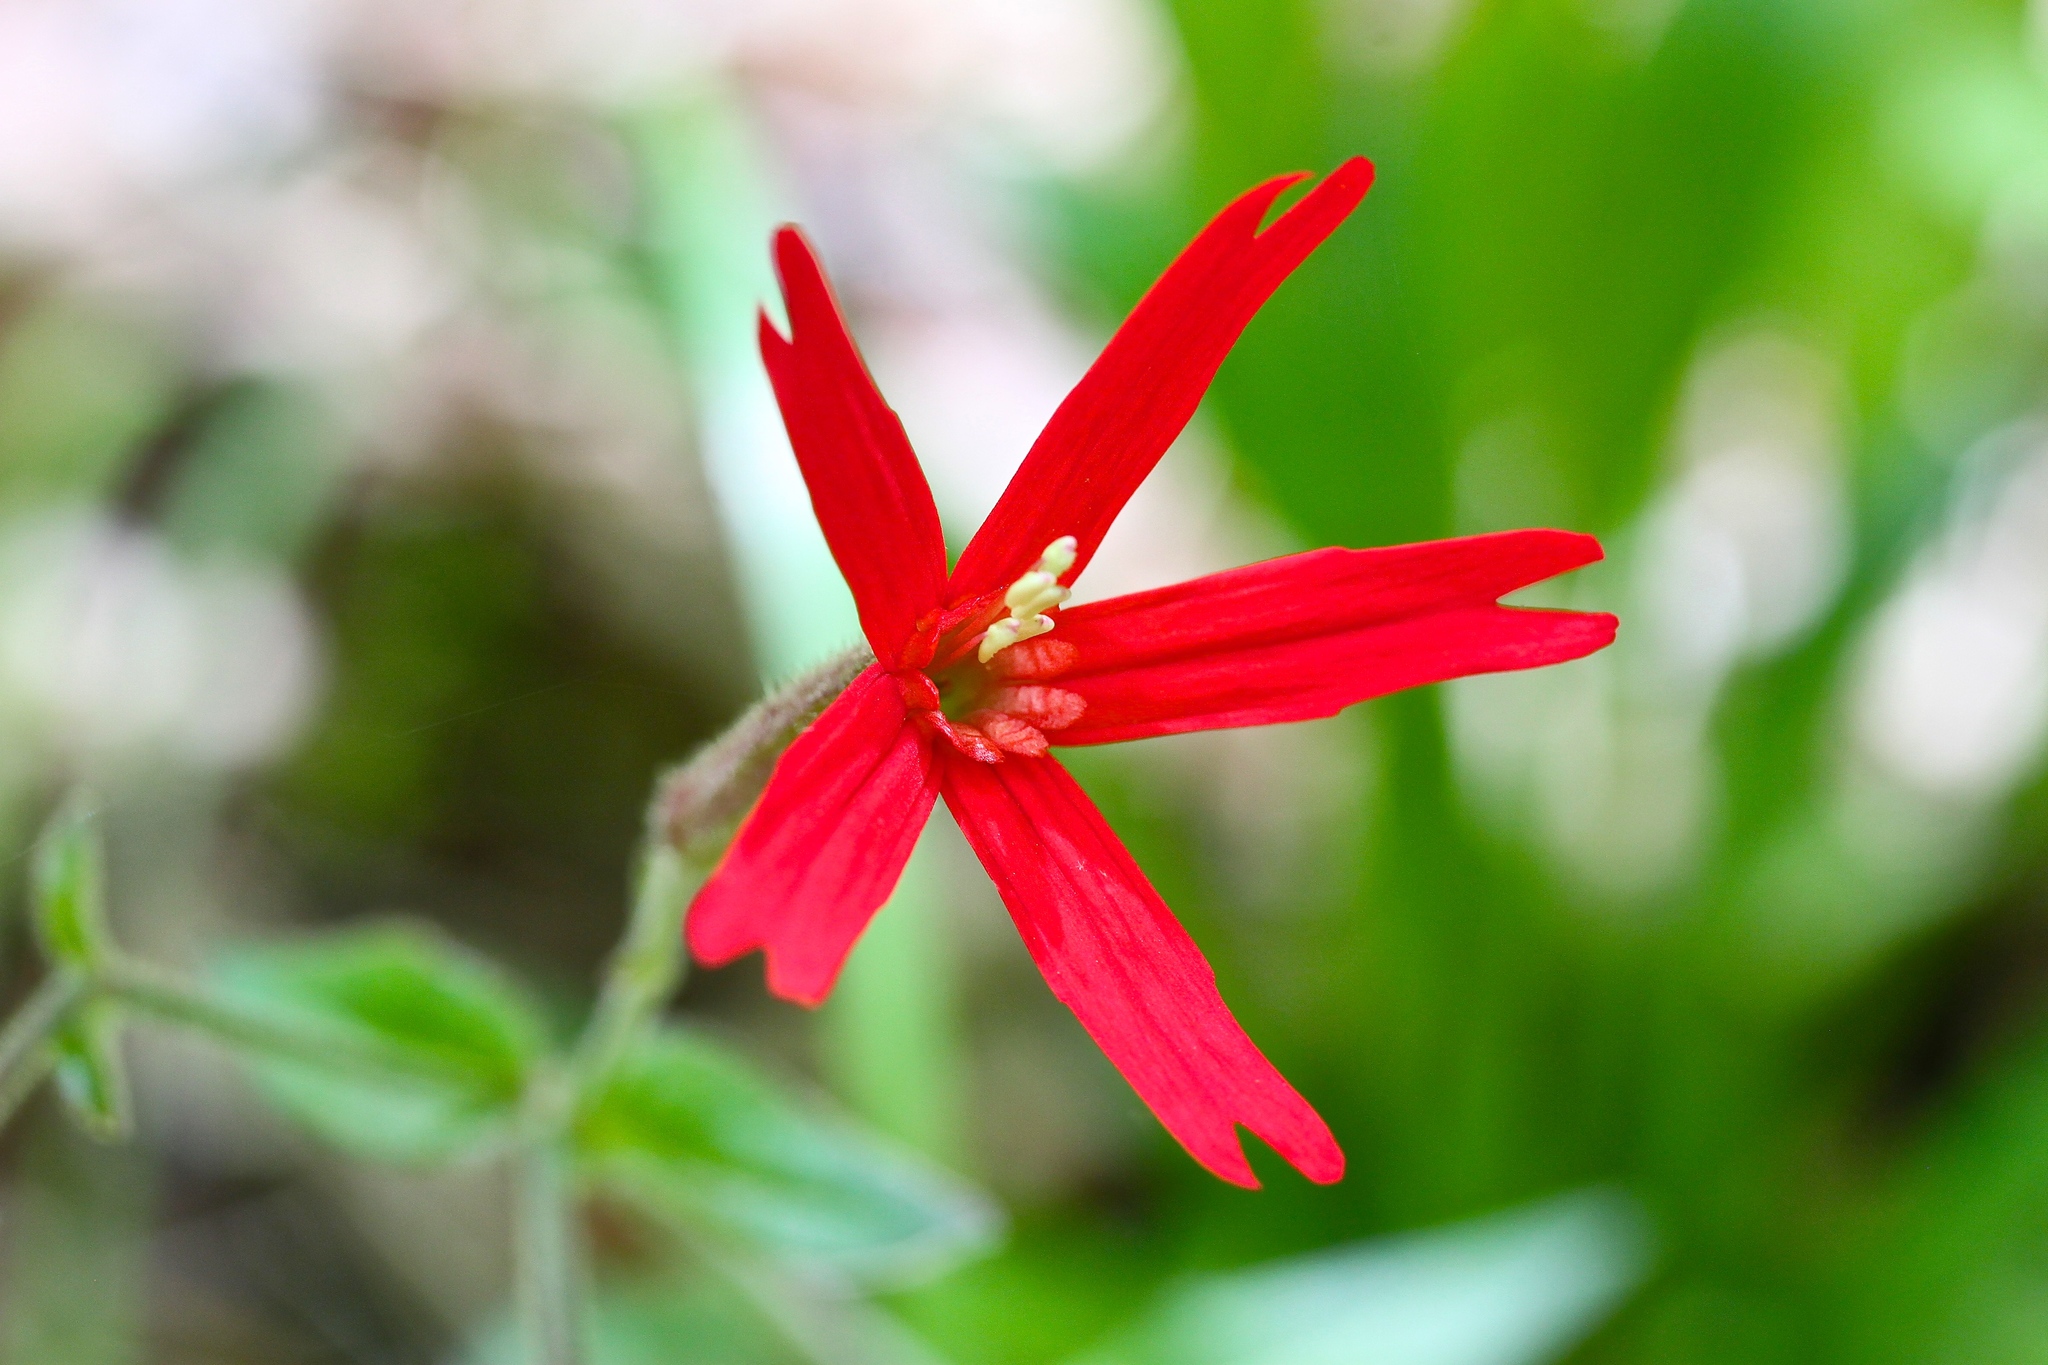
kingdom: Plantae
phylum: Tracheophyta
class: Magnoliopsida
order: Caryophyllales
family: Caryophyllaceae
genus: Silene
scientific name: Silene virginica
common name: Fire-pink
